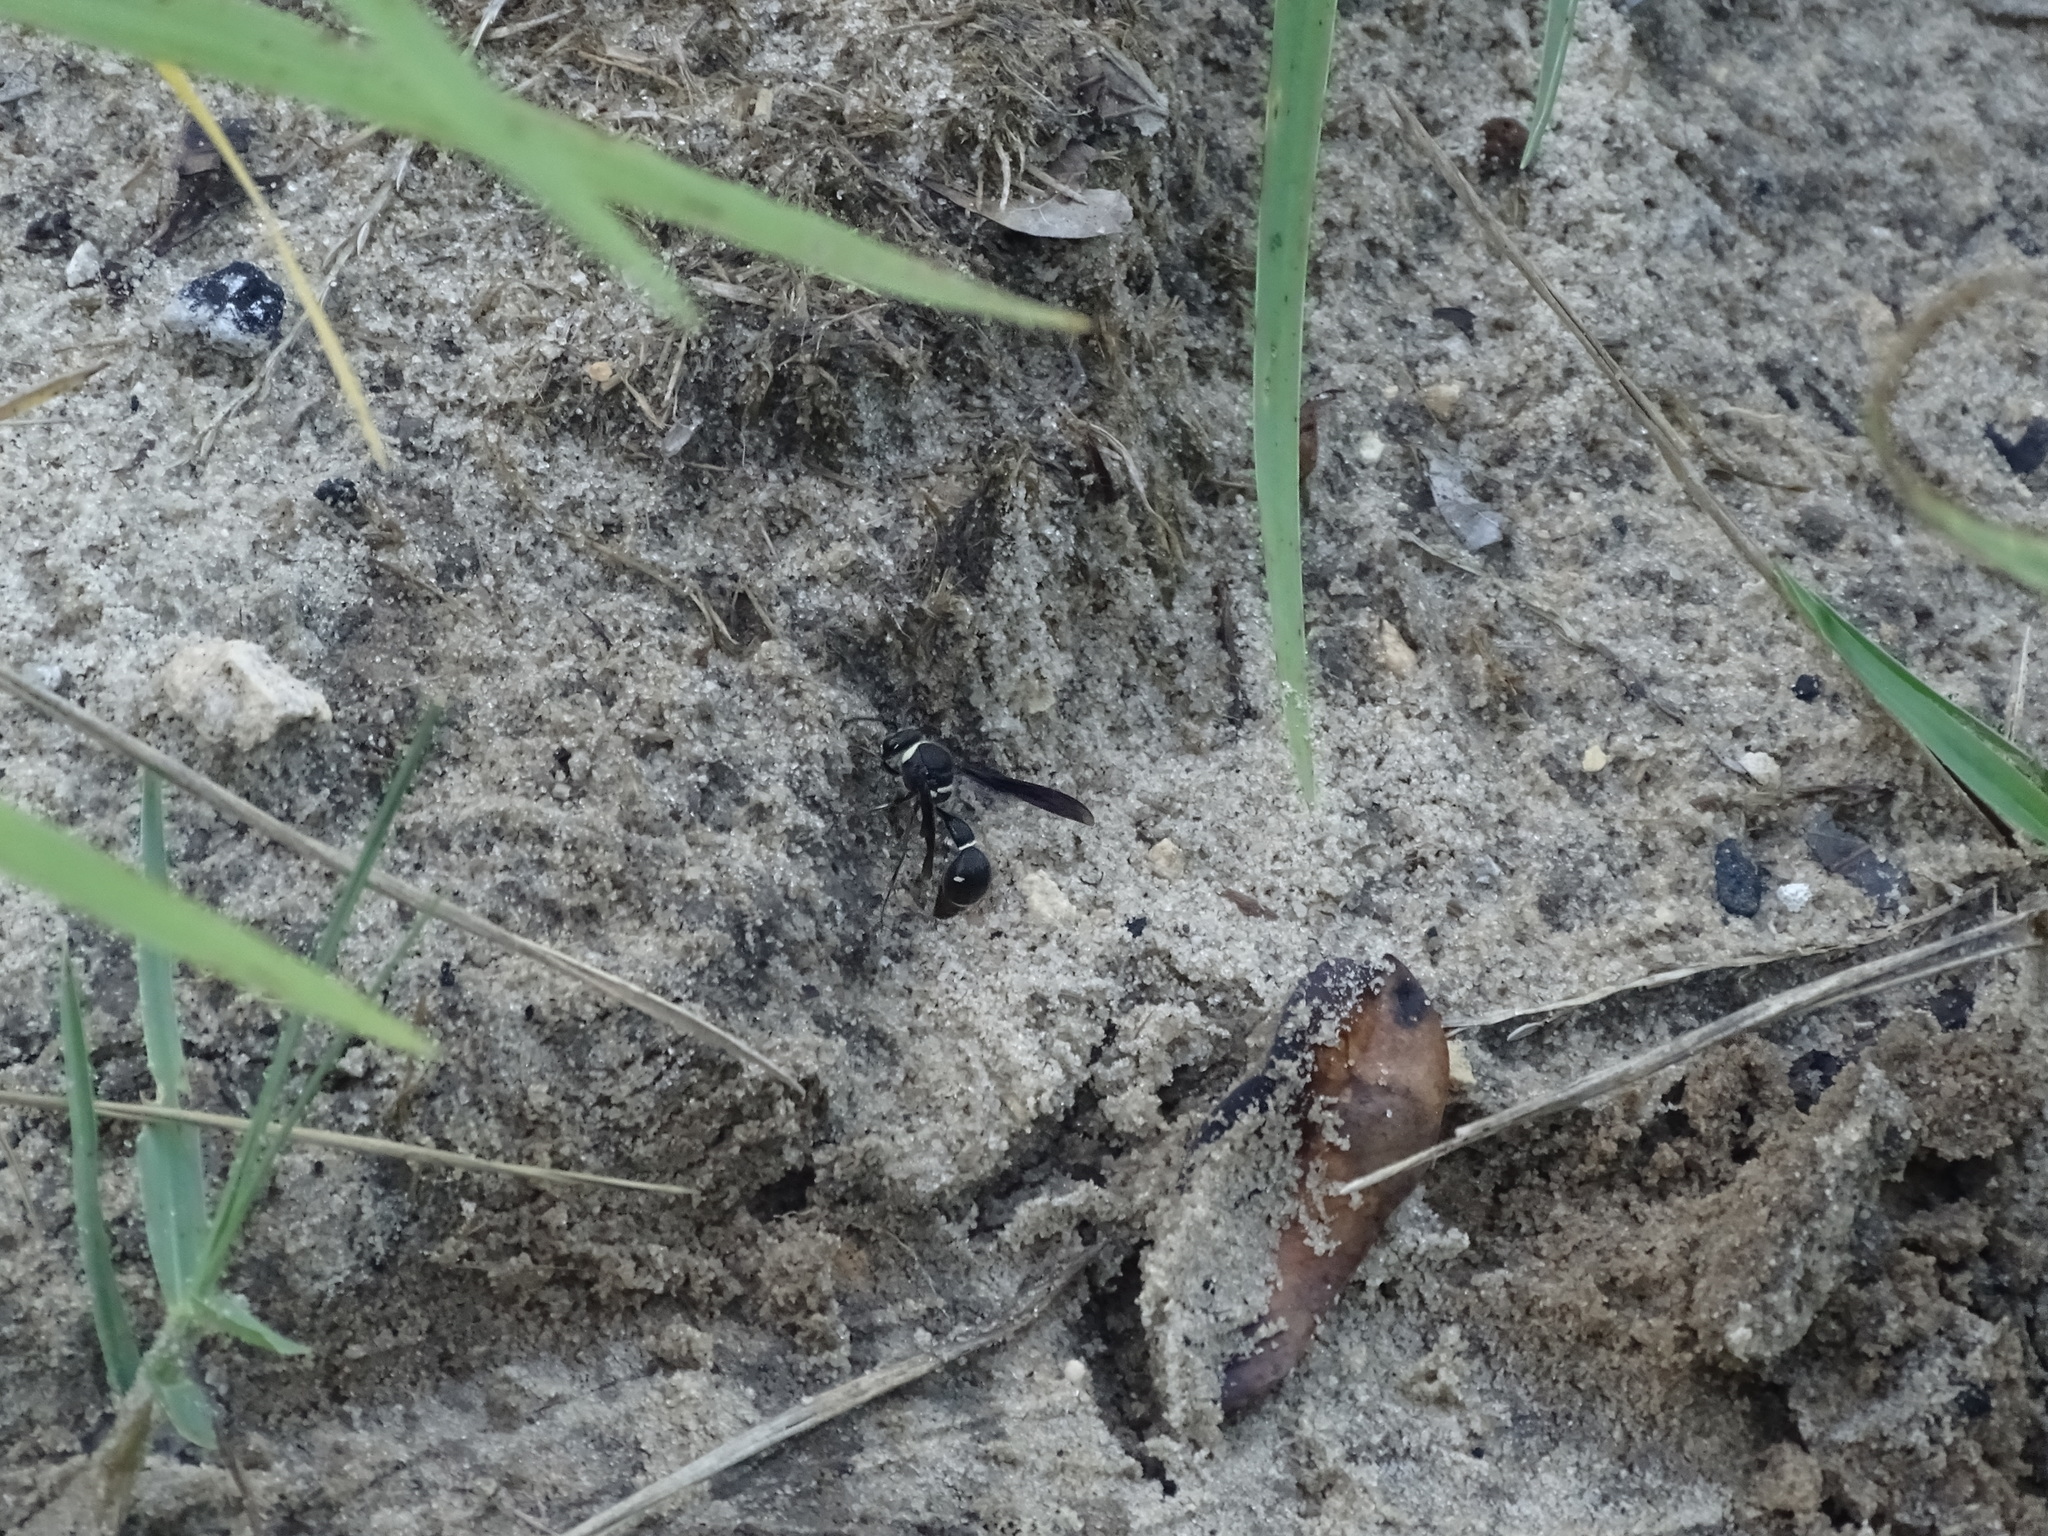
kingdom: Animalia
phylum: Arthropoda
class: Insecta
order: Hymenoptera
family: Vespidae
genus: Eumenes
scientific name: Eumenes fraternus
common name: Fraternal potter wasp
